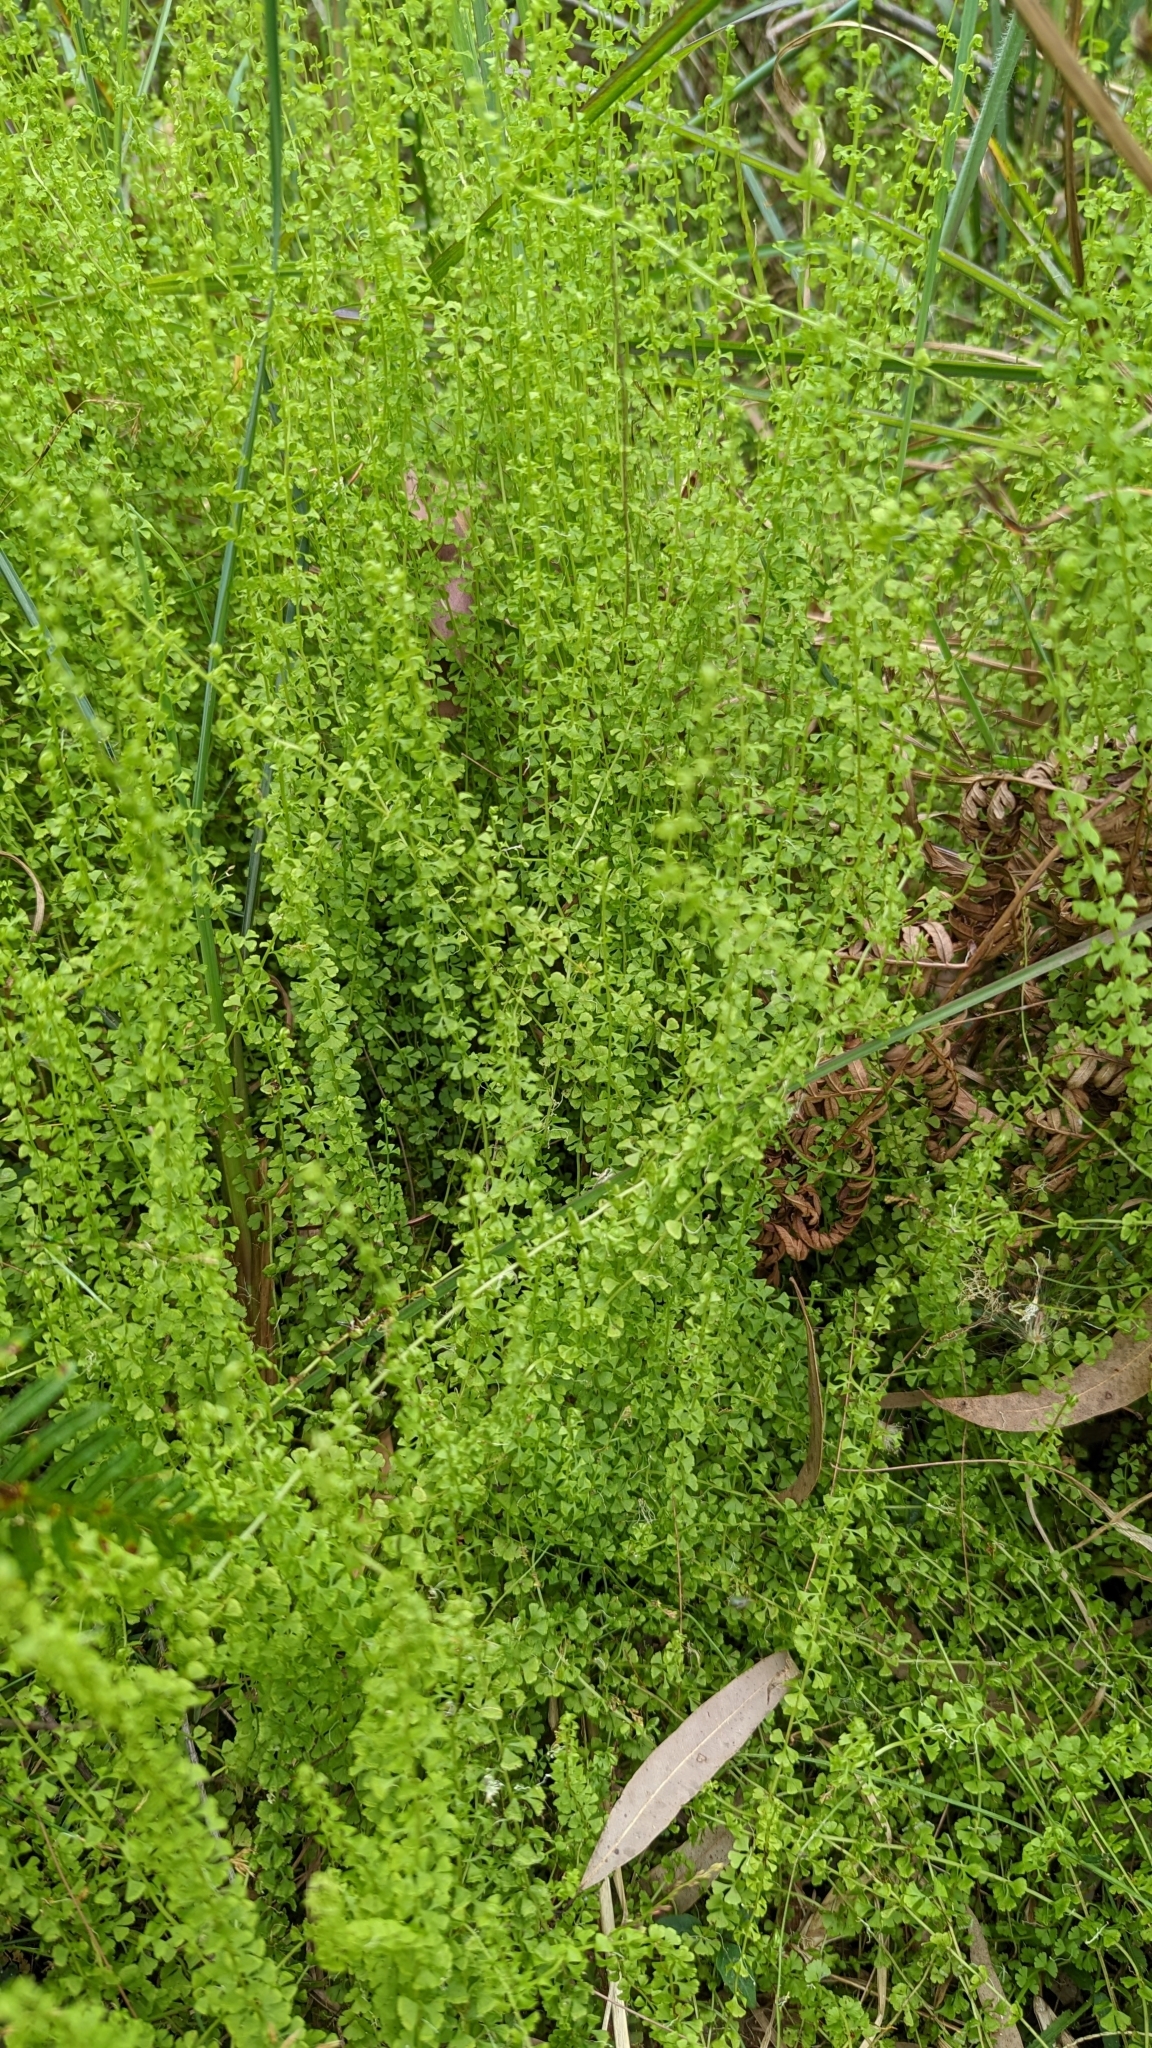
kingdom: Plantae
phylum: Tracheophyta
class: Polypodiopsida
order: Polypodiales
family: Lindsaeaceae
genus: Lindsaea
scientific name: Lindsaea incisa
